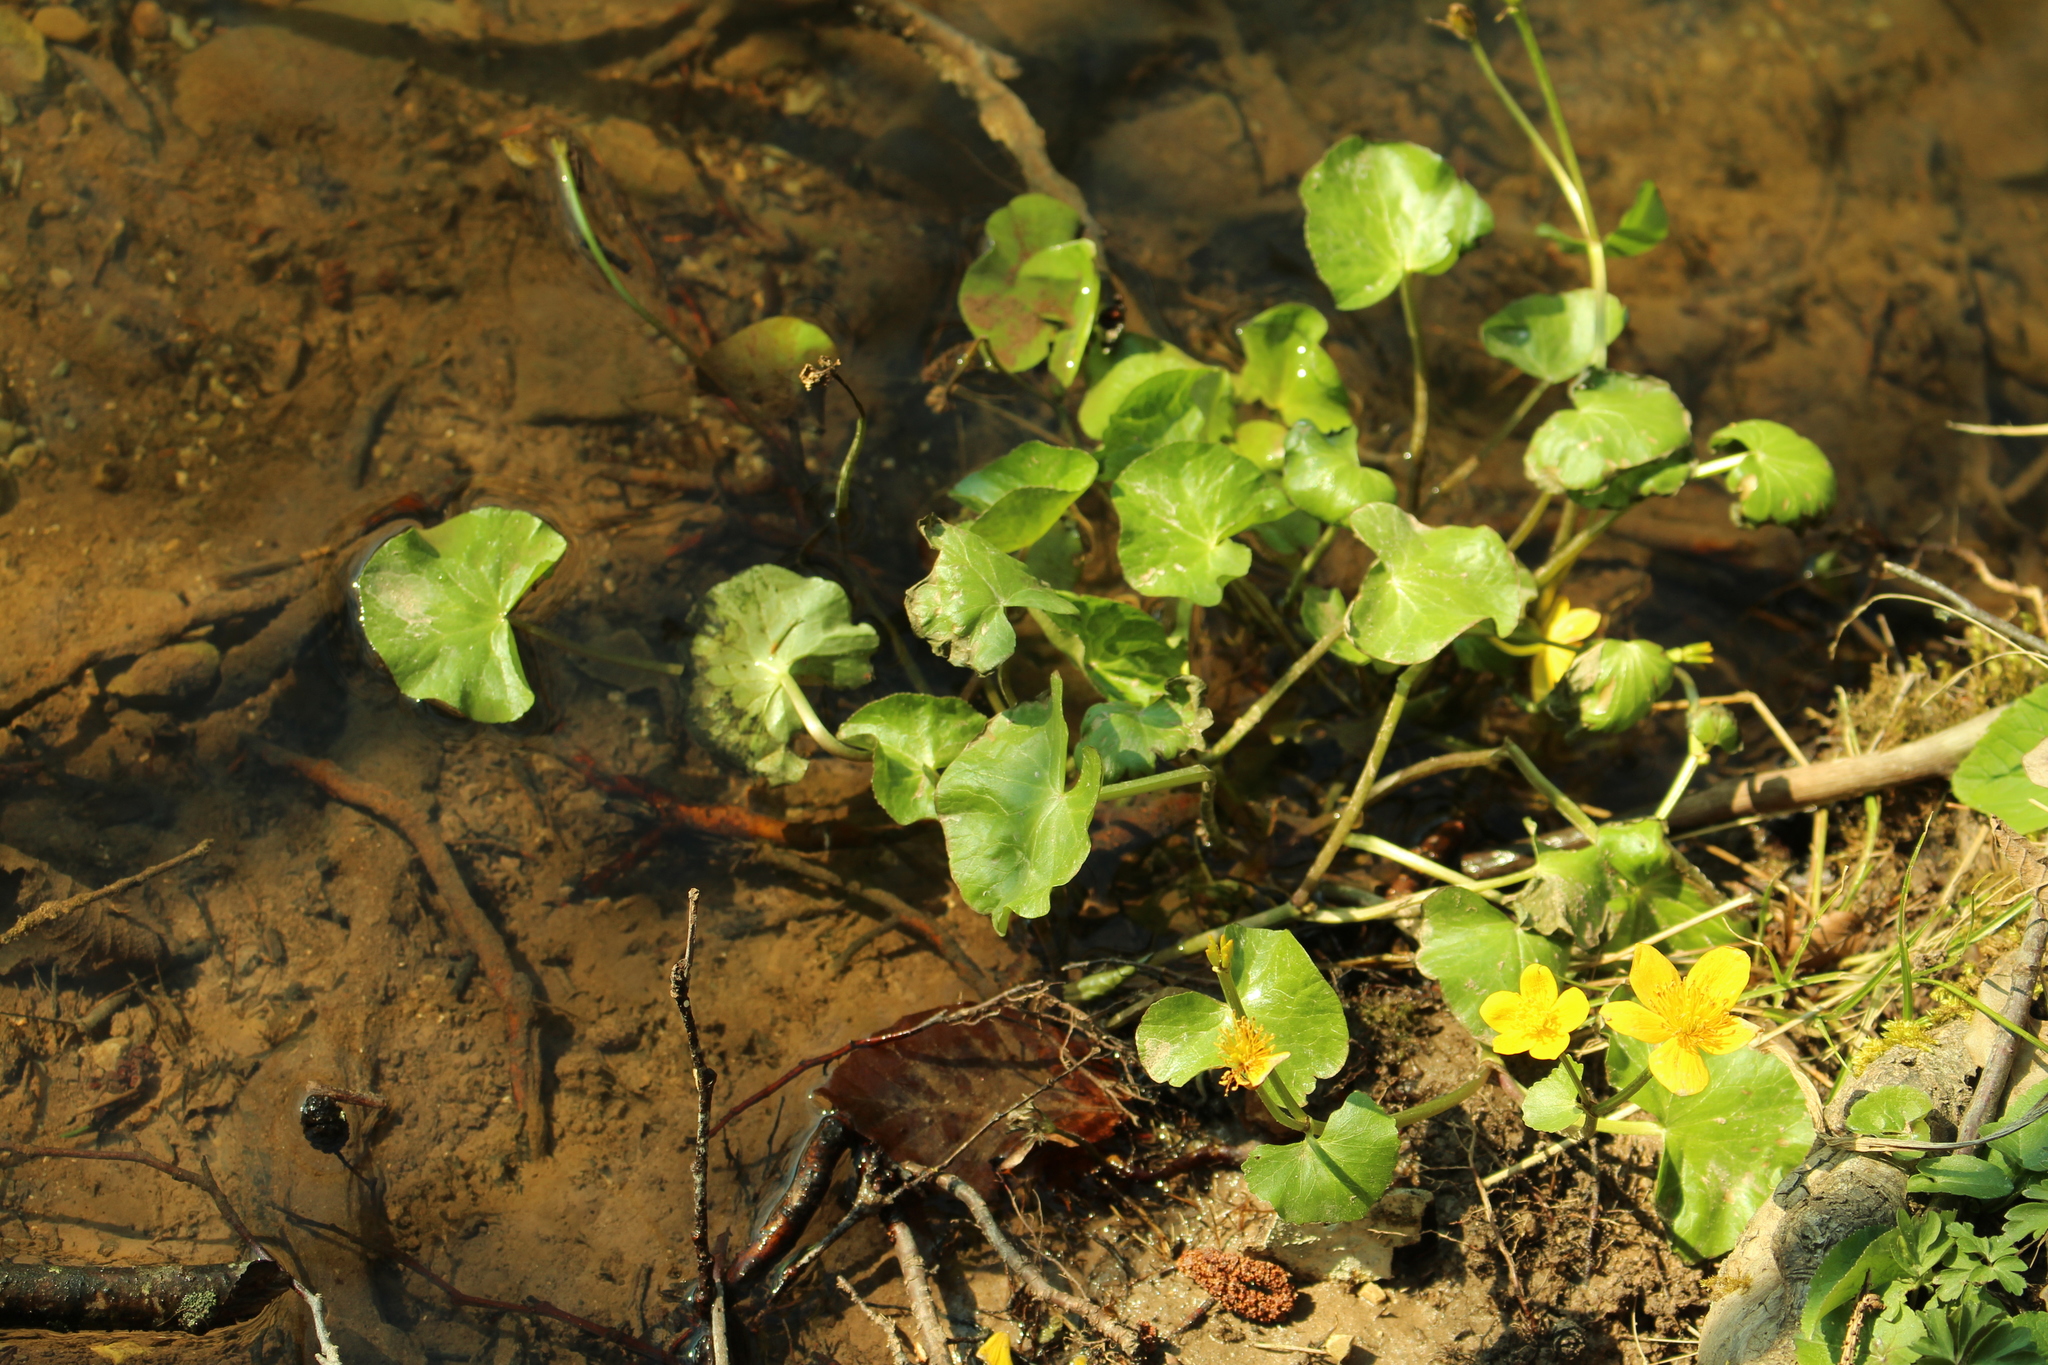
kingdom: Plantae
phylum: Tracheophyta
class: Magnoliopsida
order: Ranunculales
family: Ranunculaceae
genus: Caltha
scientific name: Caltha palustris
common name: Marsh marigold
